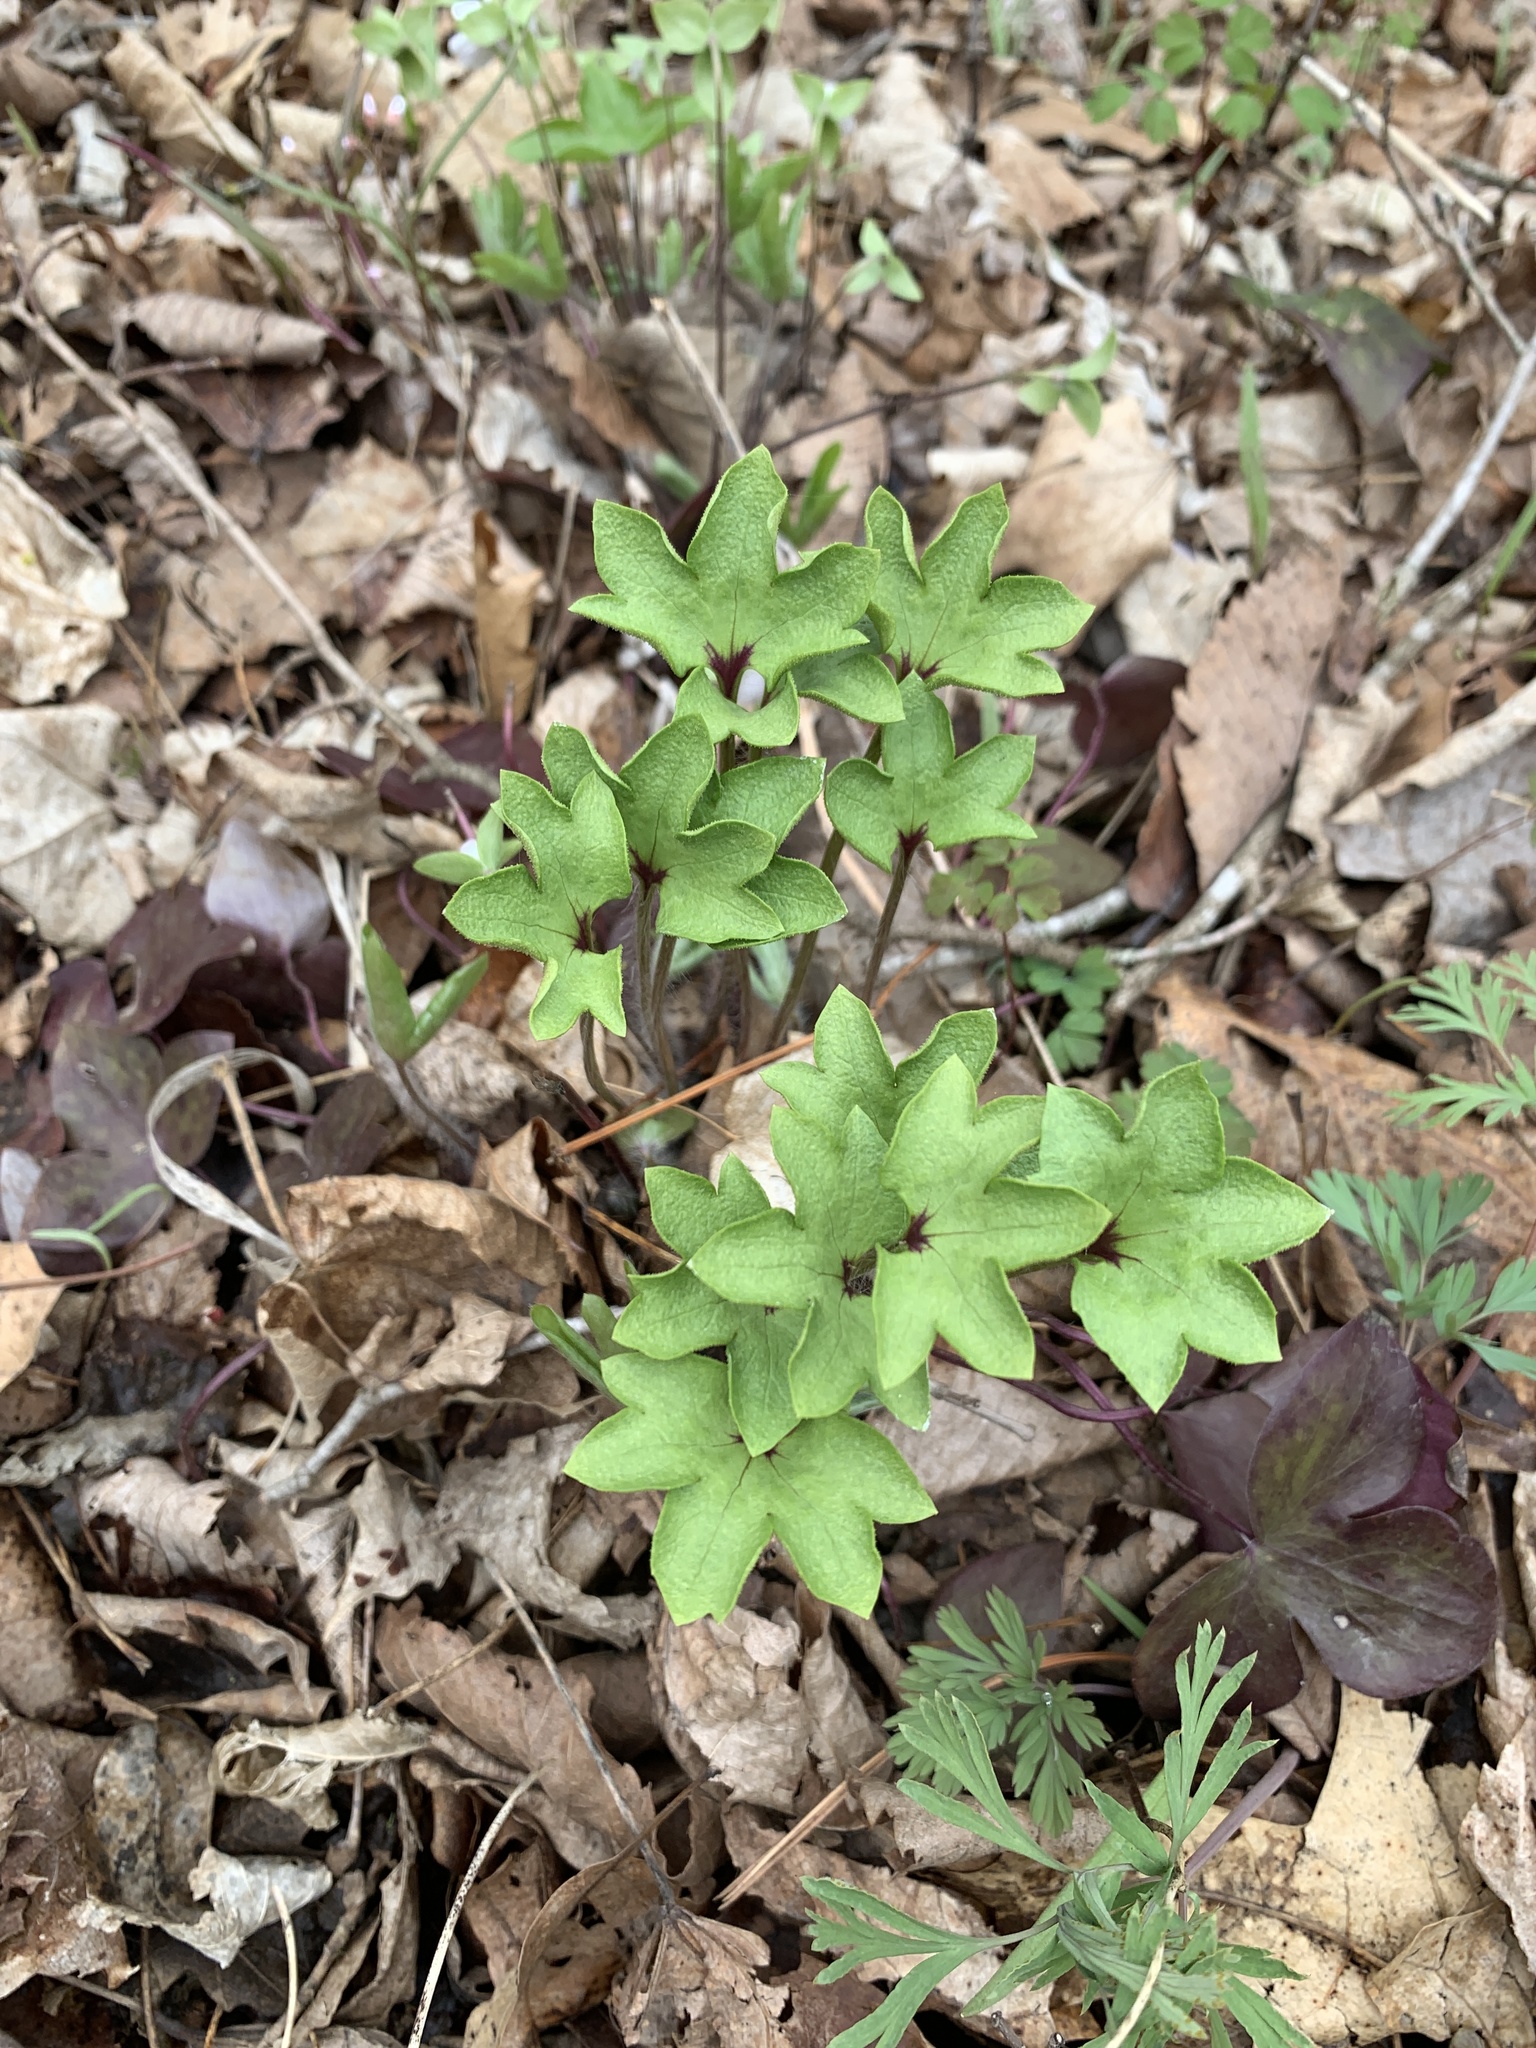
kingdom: Plantae
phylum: Tracheophyta
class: Magnoliopsida
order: Ranunculales
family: Ranunculaceae
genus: Hepatica
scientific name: Hepatica acutiloba
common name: Sharp-lobed hepatica
